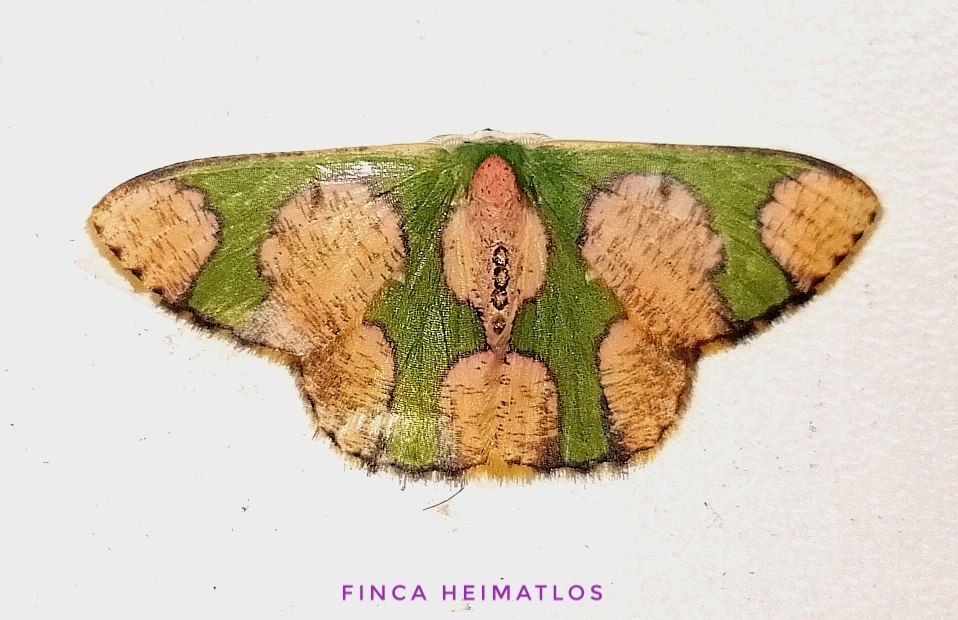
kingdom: Animalia
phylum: Arthropoda
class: Insecta
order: Lepidoptera
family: Geometridae
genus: Oospila
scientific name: Oospila albicoma
